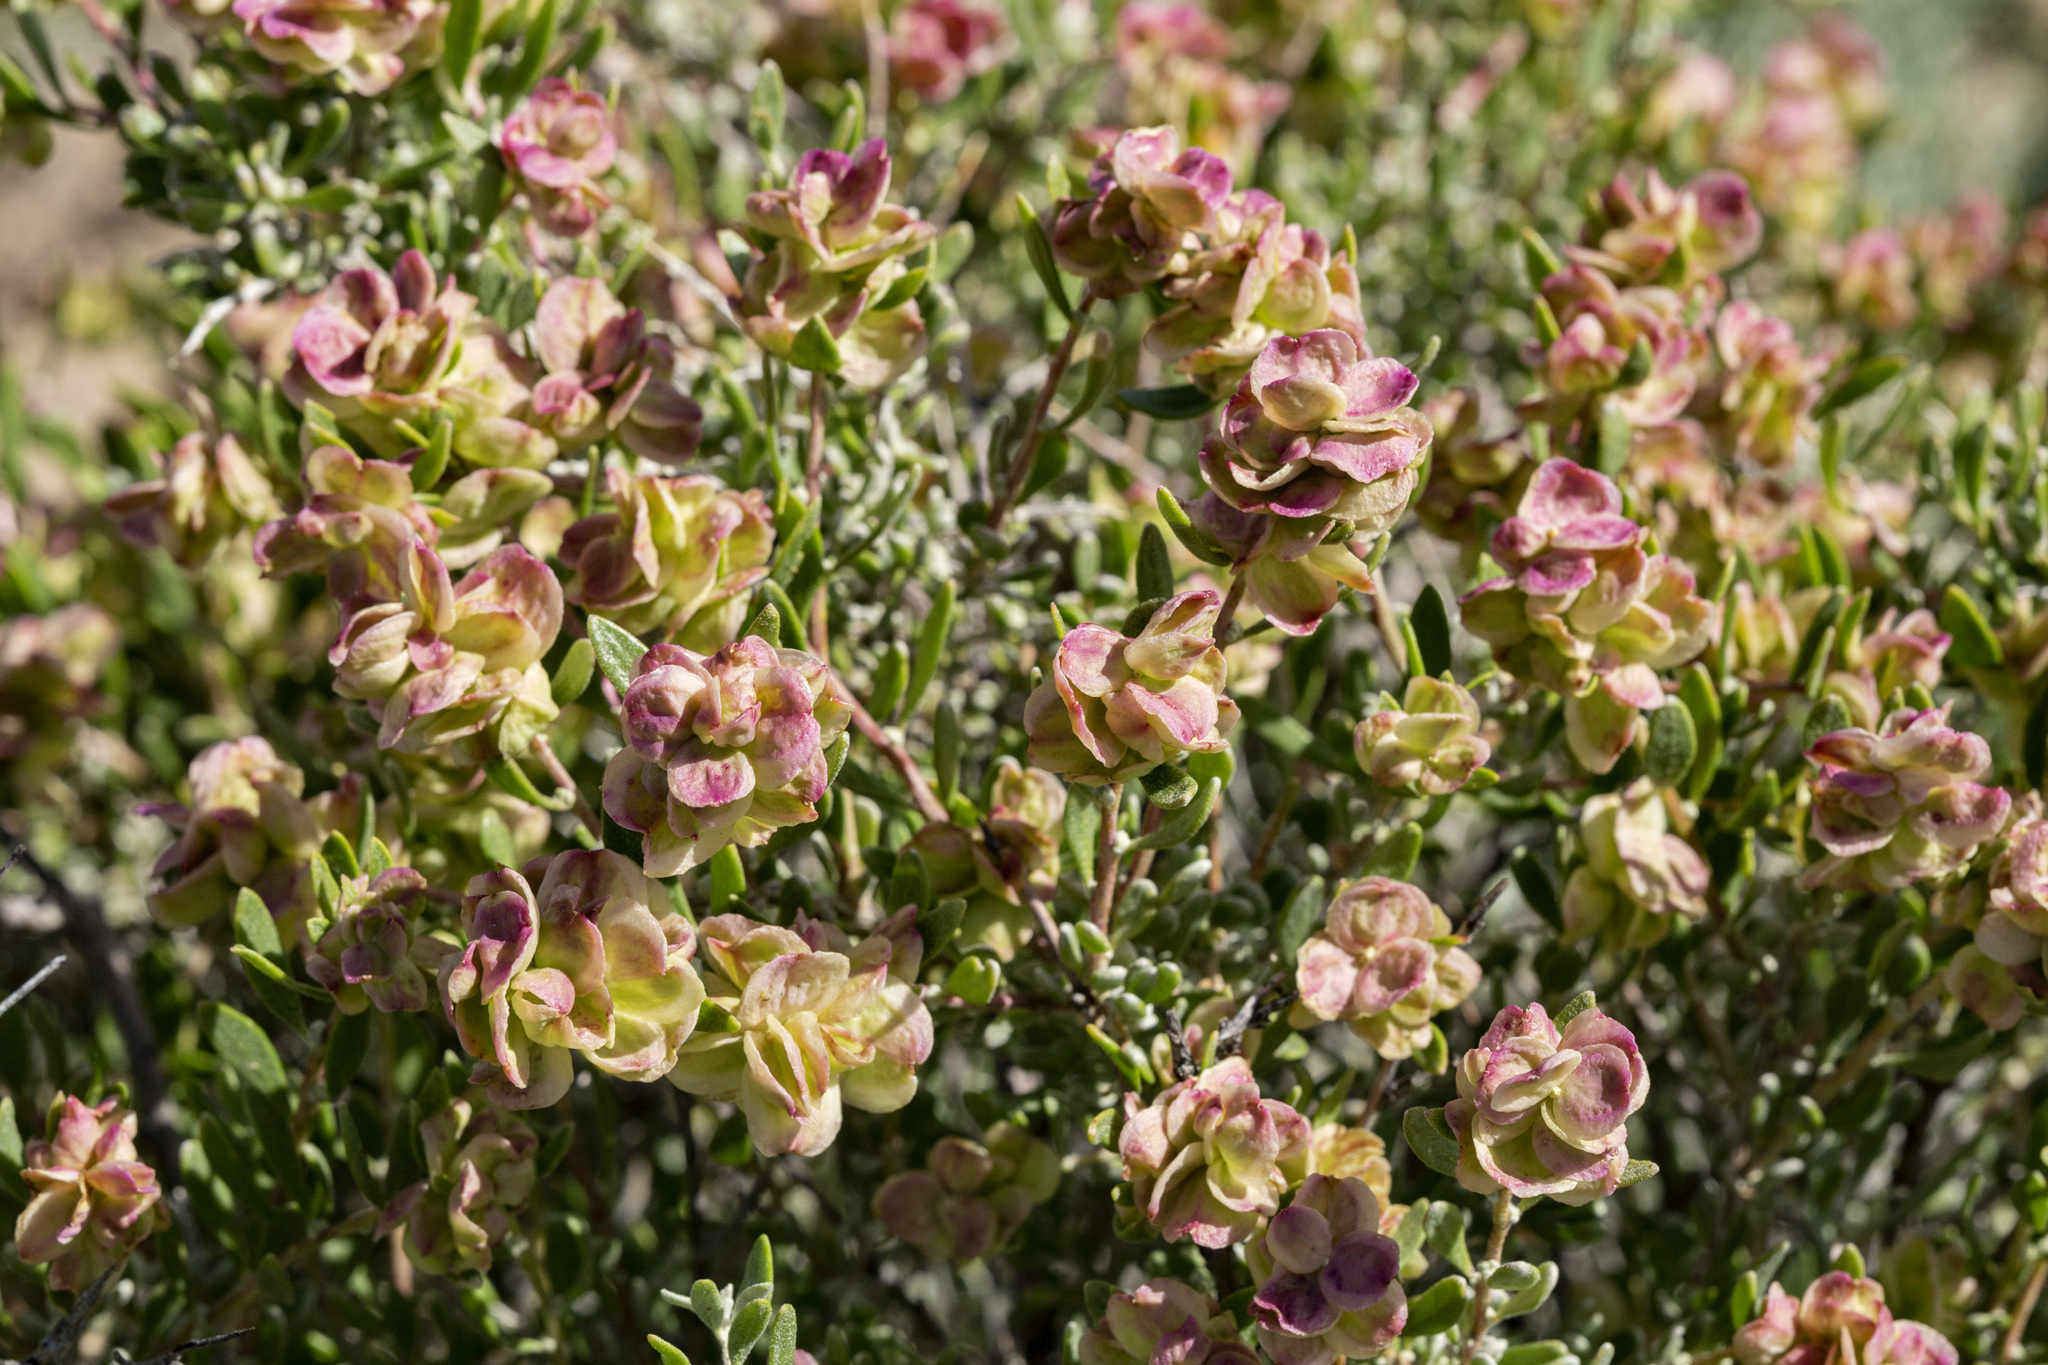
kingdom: Plantae
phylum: Tracheophyta
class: Magnoliopsida
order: Caryophyllales
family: Amaranthaceae
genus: Grayia
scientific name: Grayia spinosa
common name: Spiny hopsage
